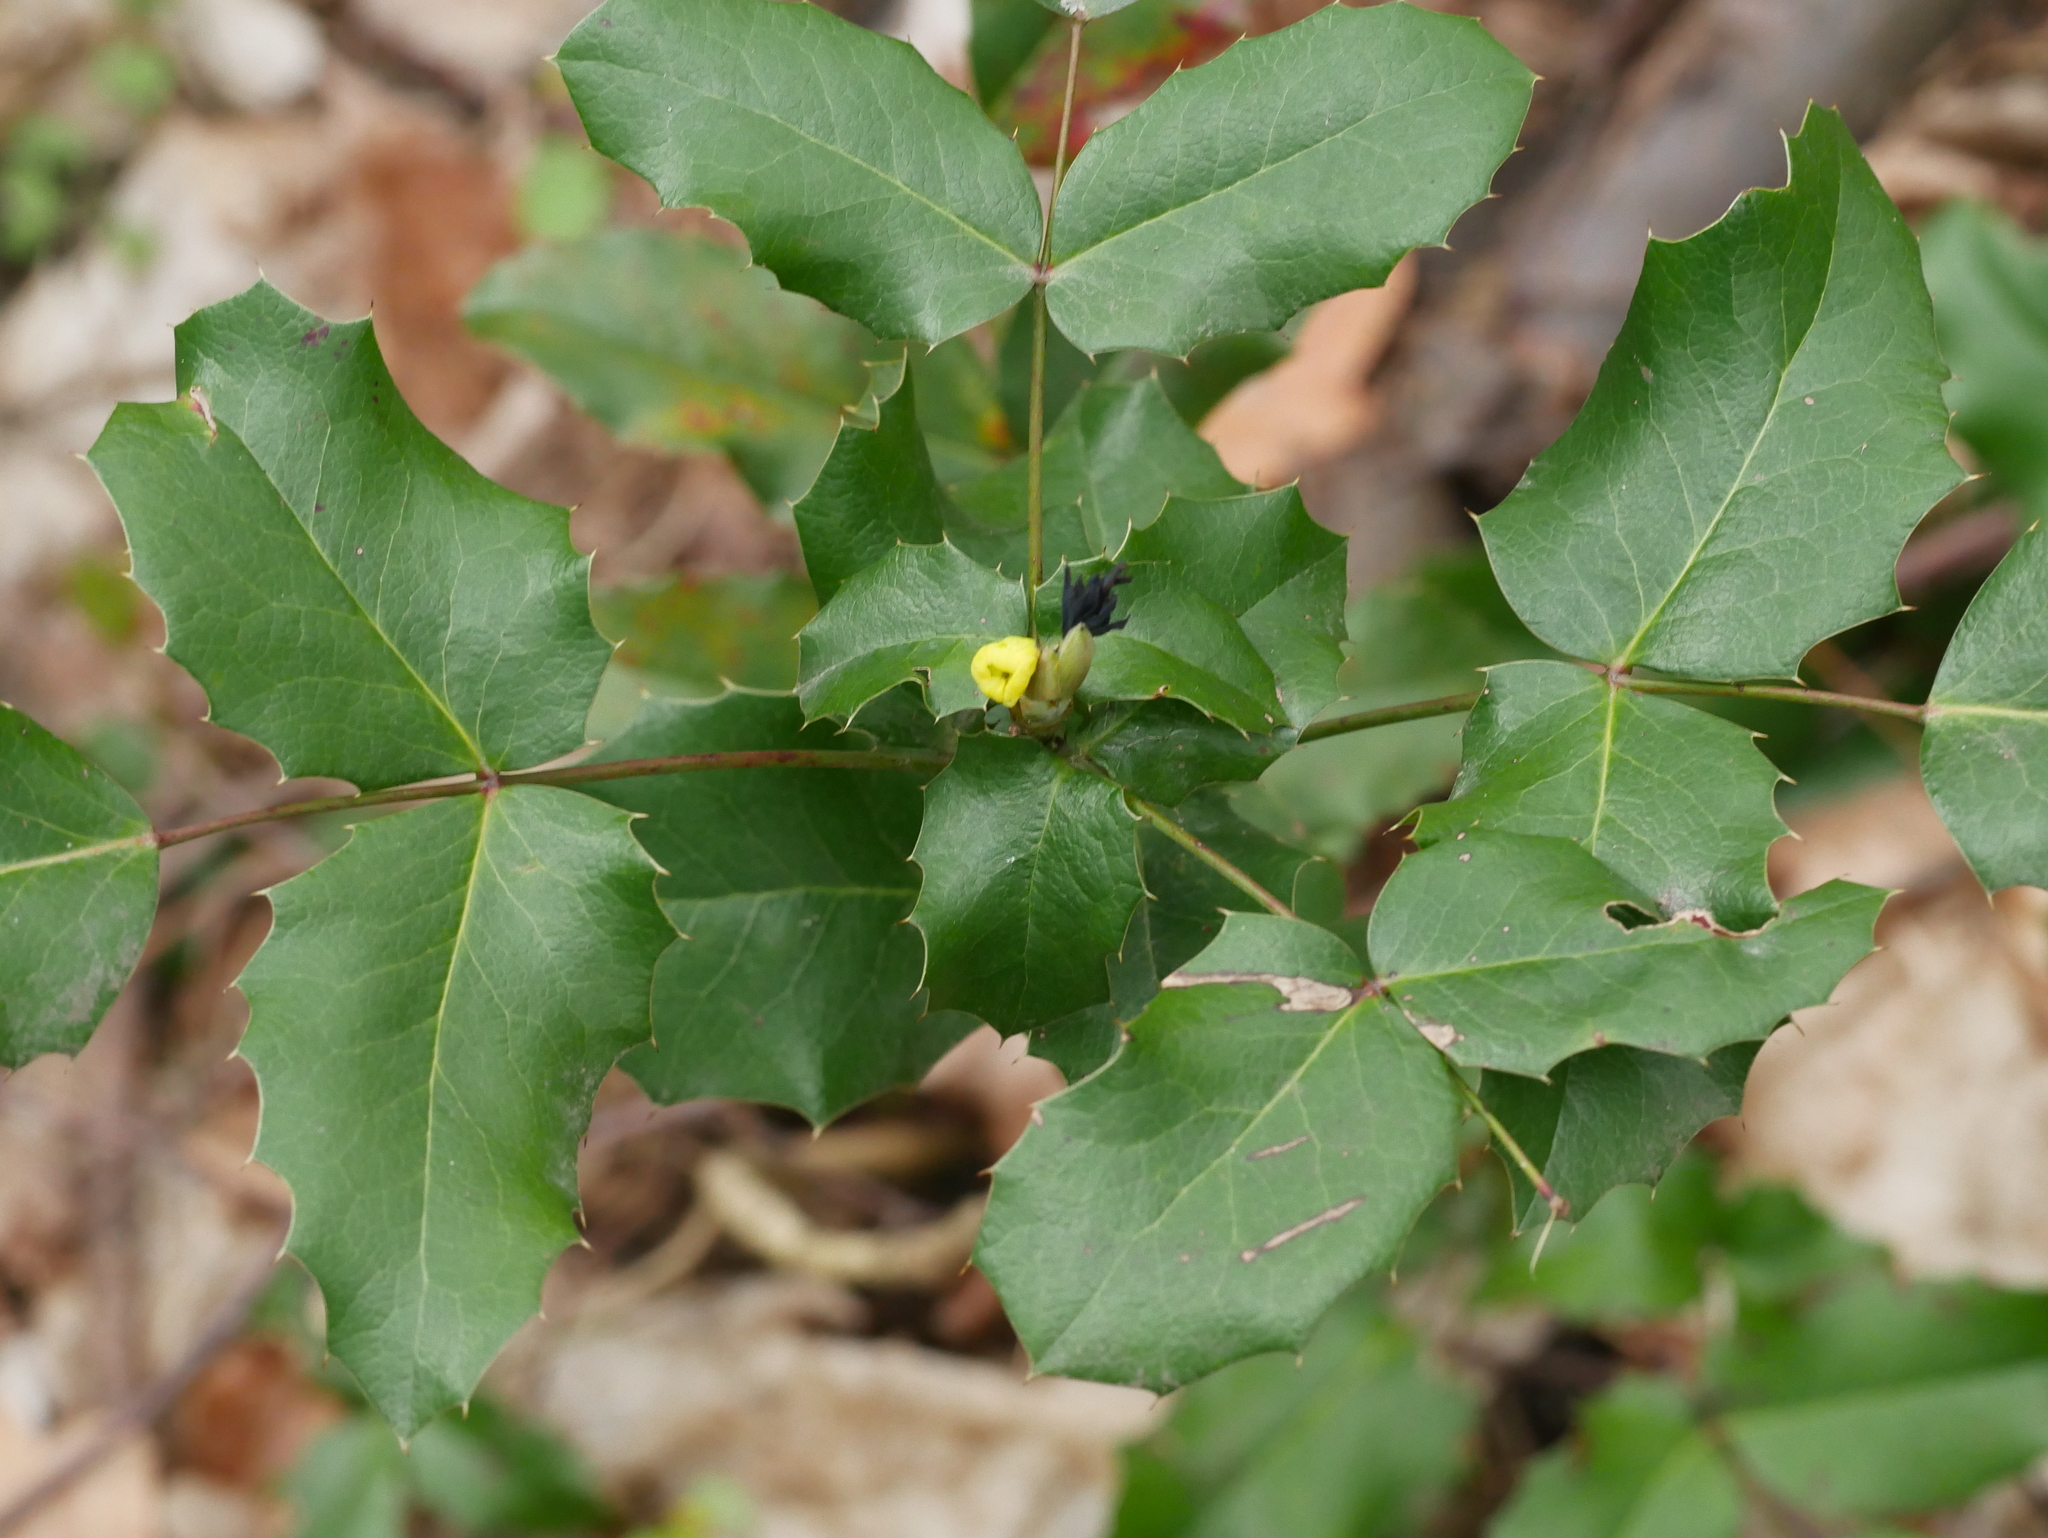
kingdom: Plantae
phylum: Tracheophyta
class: Magnoliopsida
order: Ranunculales
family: Berberidaceae
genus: Mahonia
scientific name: Mahonia aquifolium
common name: Oregon-grape
